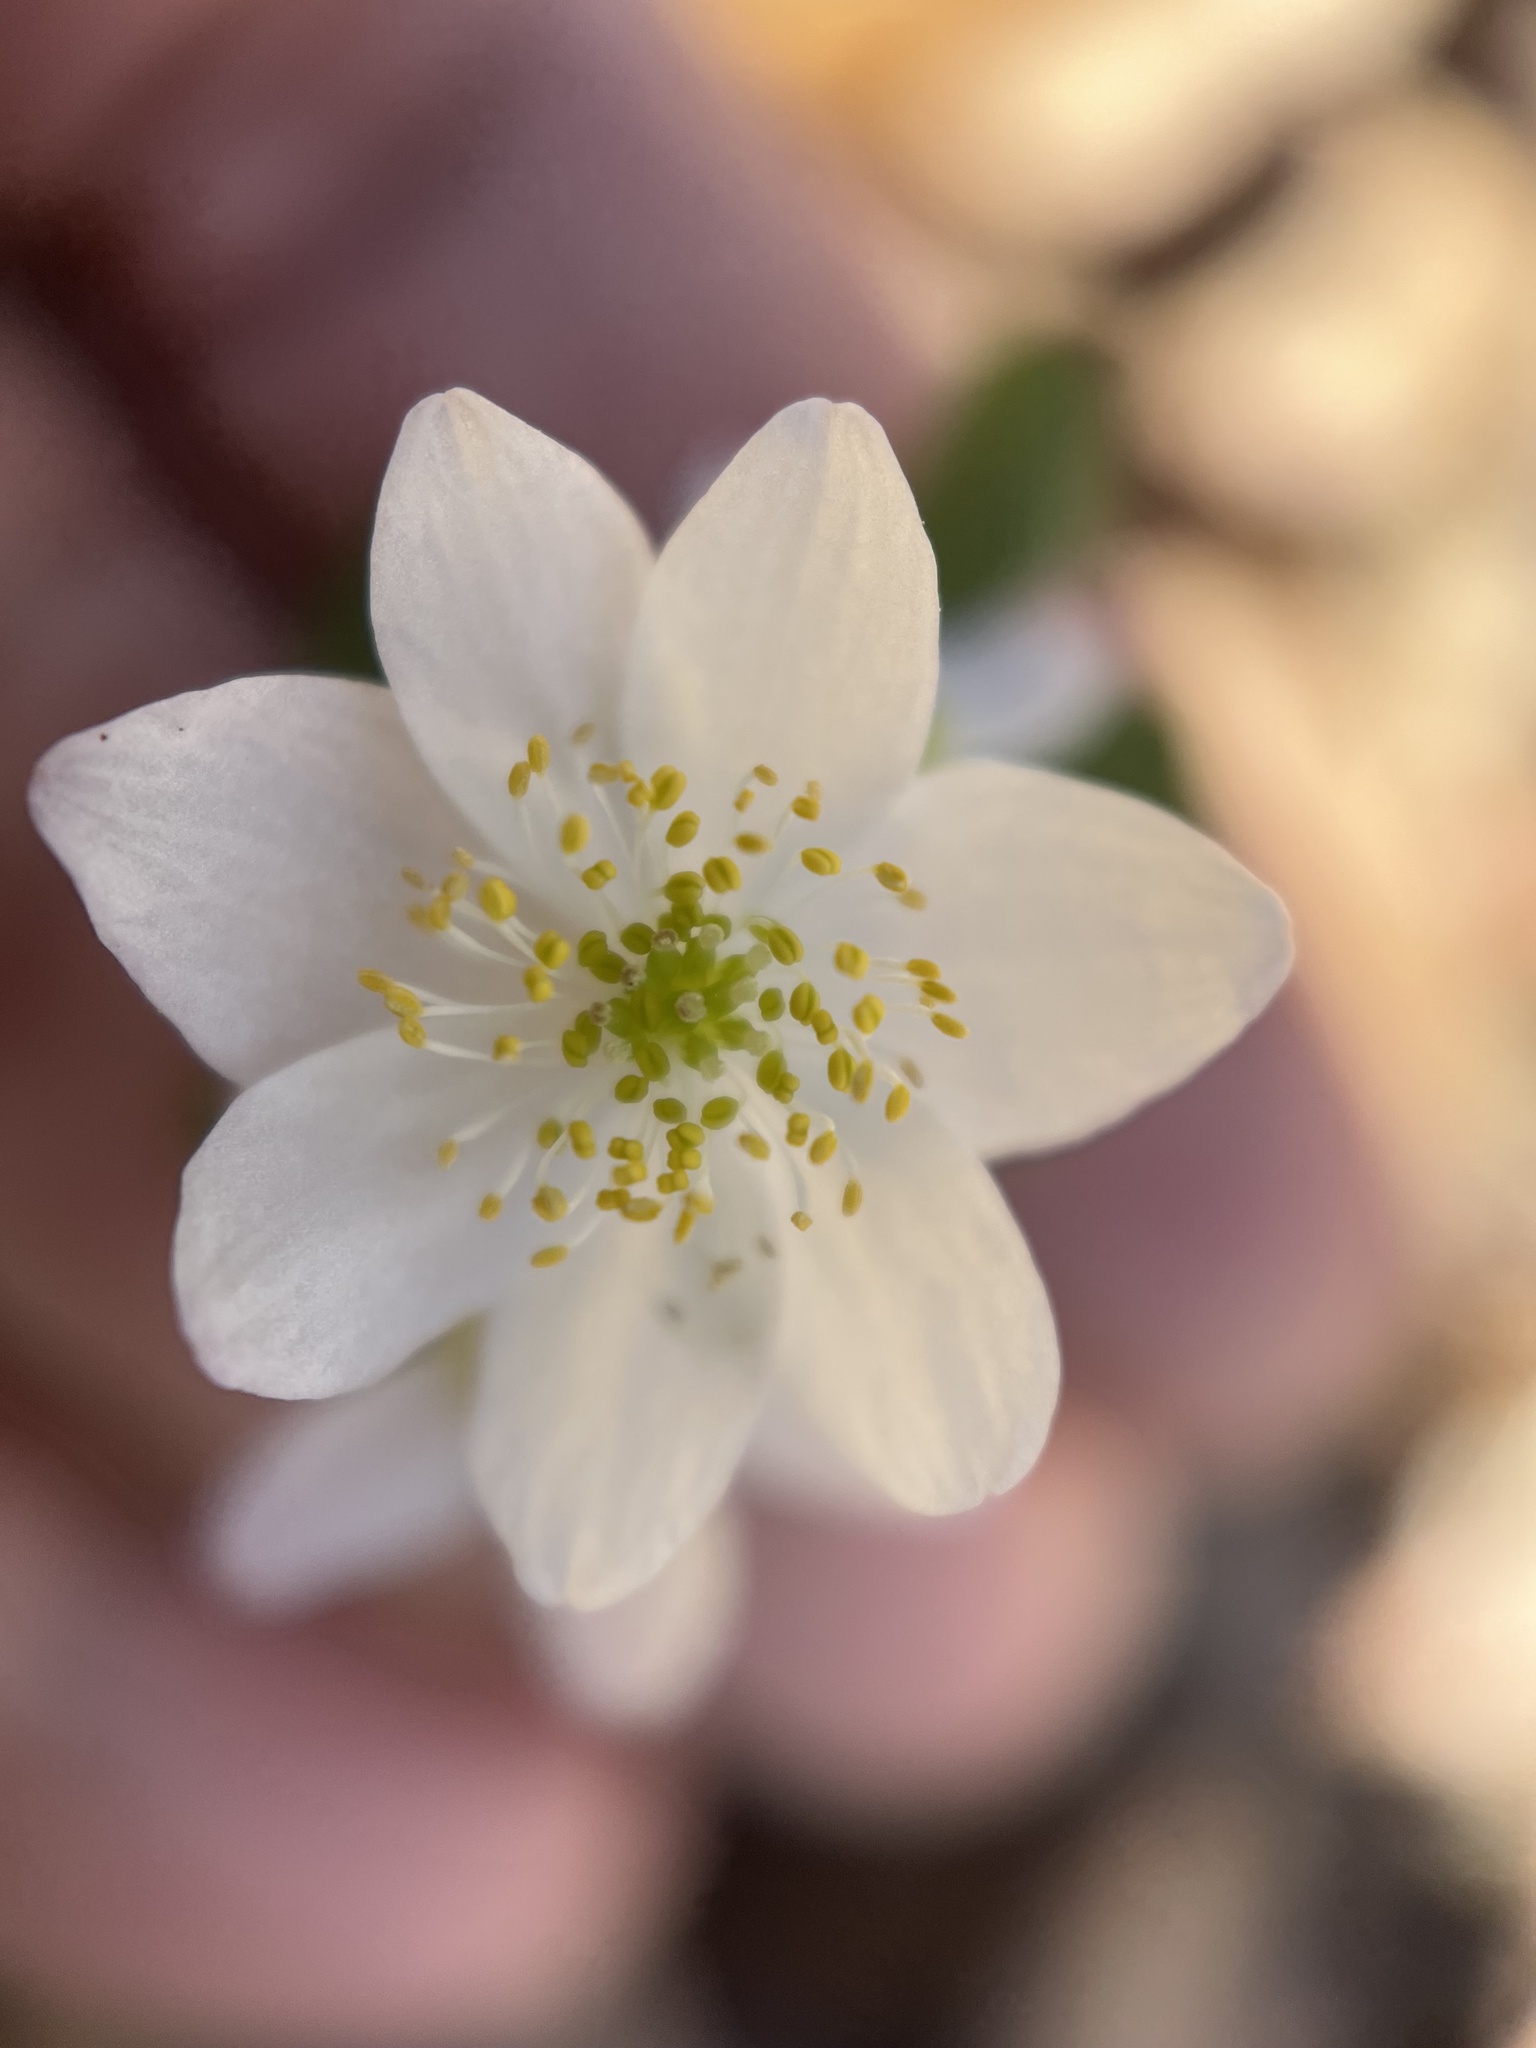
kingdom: Plantae
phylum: Tracheophyta
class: Magnoliopsida
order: Ranunculales
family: Ranunculaceae
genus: Thalictrum
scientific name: Thalictrum thalictroides
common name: Rue-anemone
